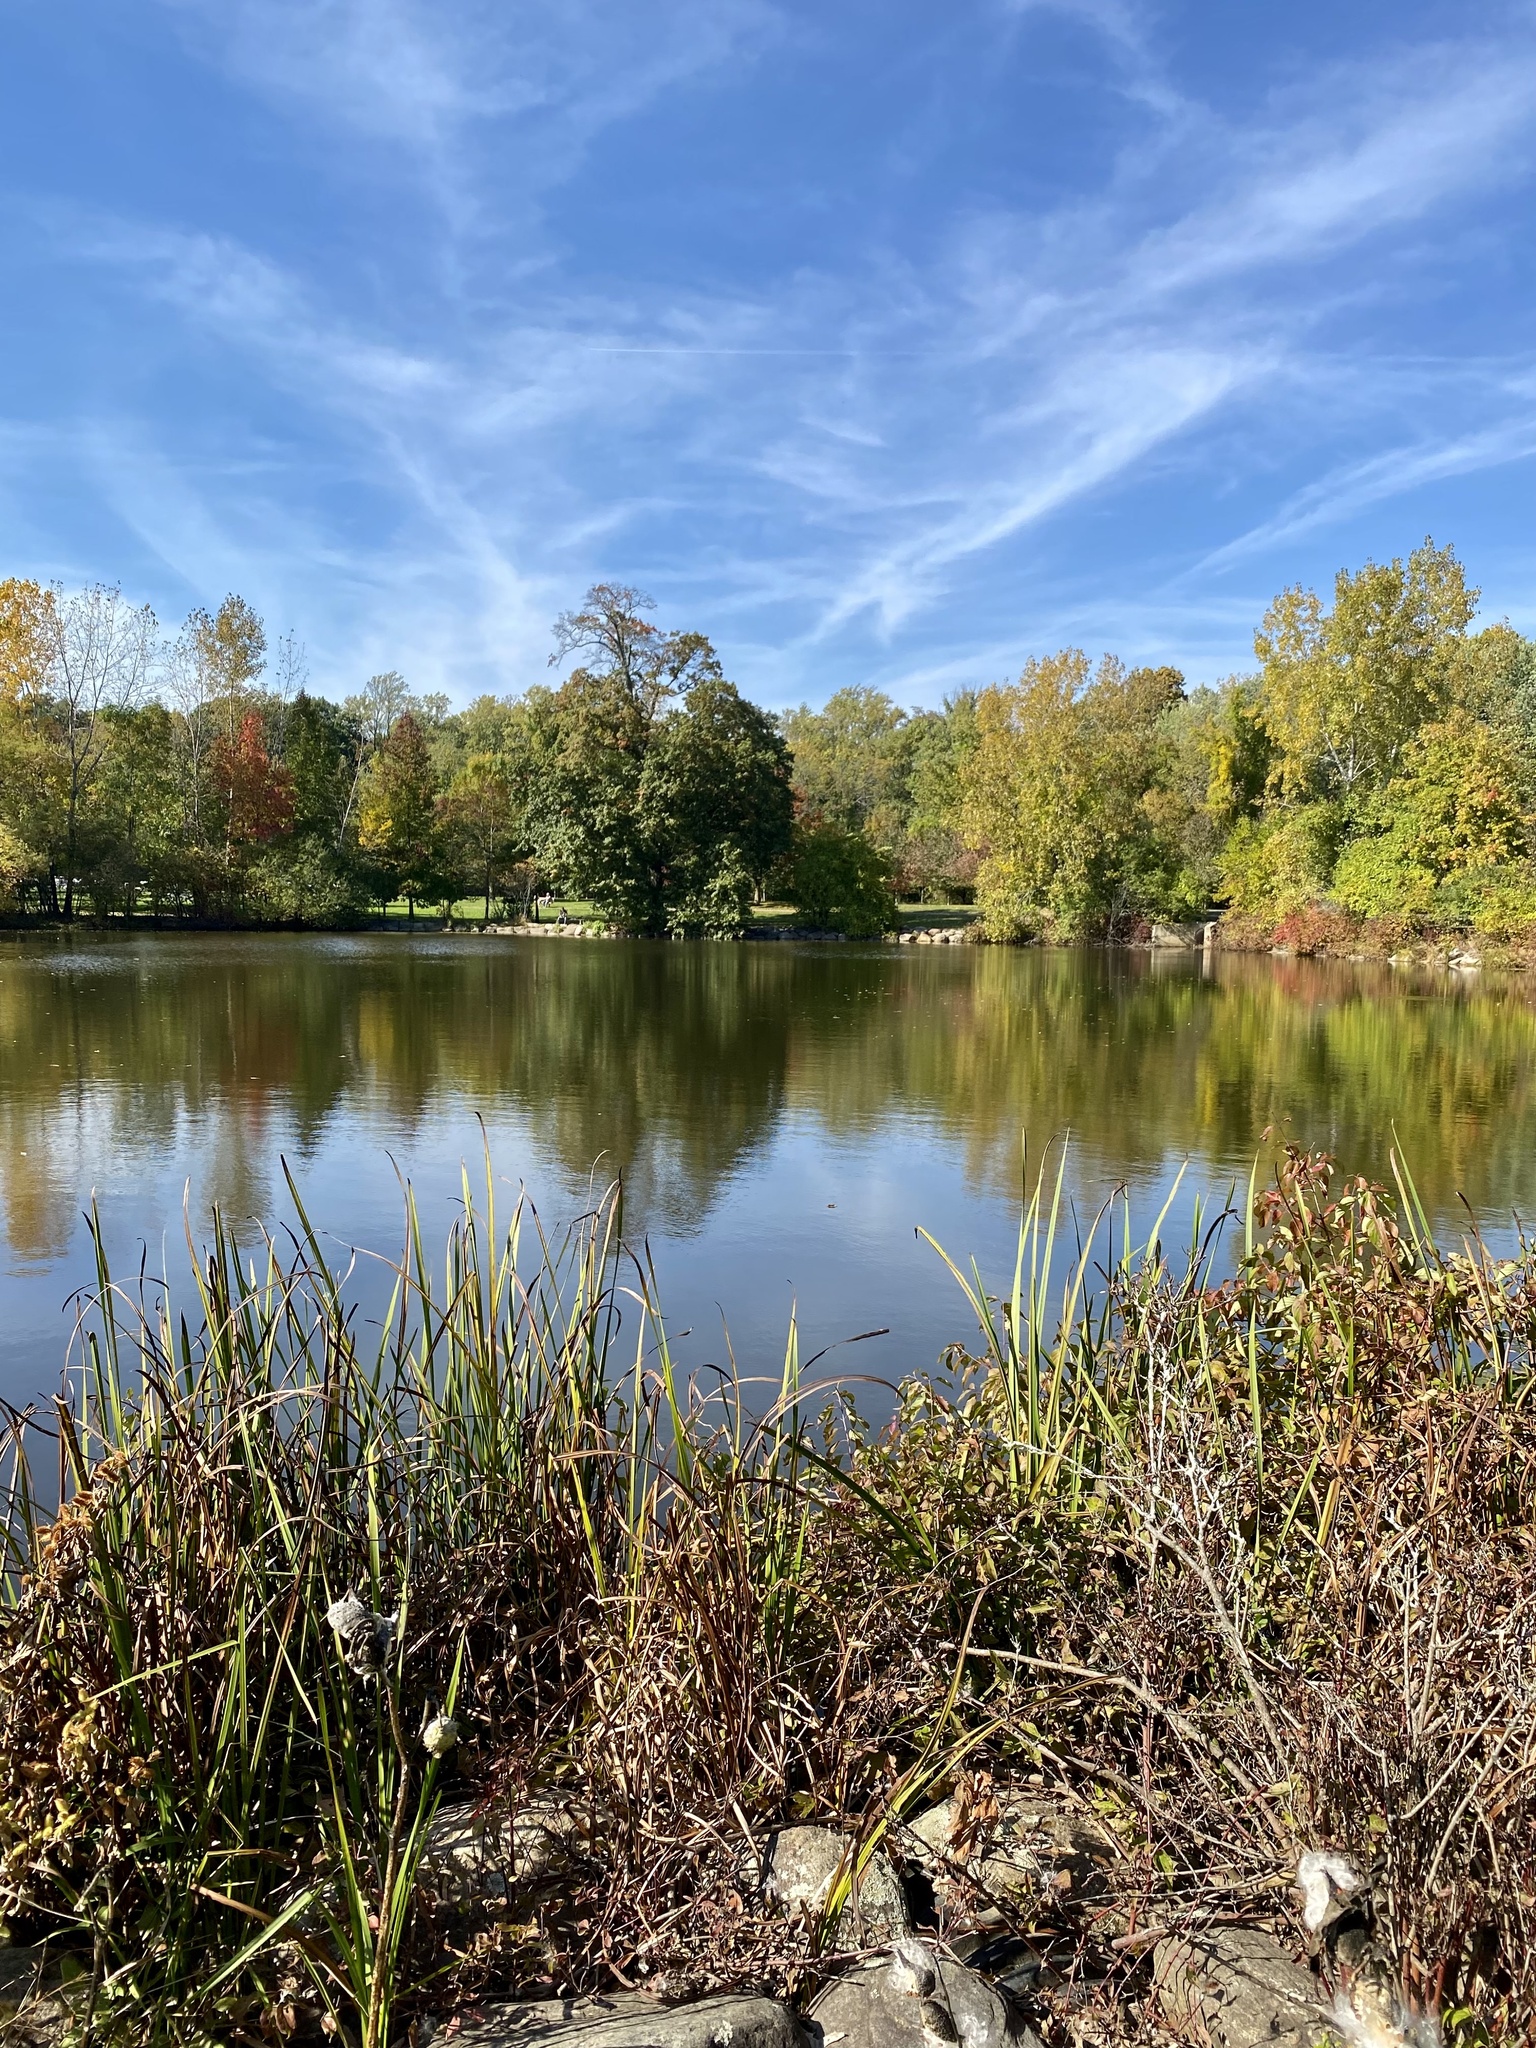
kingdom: Plantae
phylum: Tracheophyta
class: Magnoliopsida
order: Asterales
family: Asteraceae
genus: Xanthium
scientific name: Xanthium strumarium
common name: Rough cocklebur
